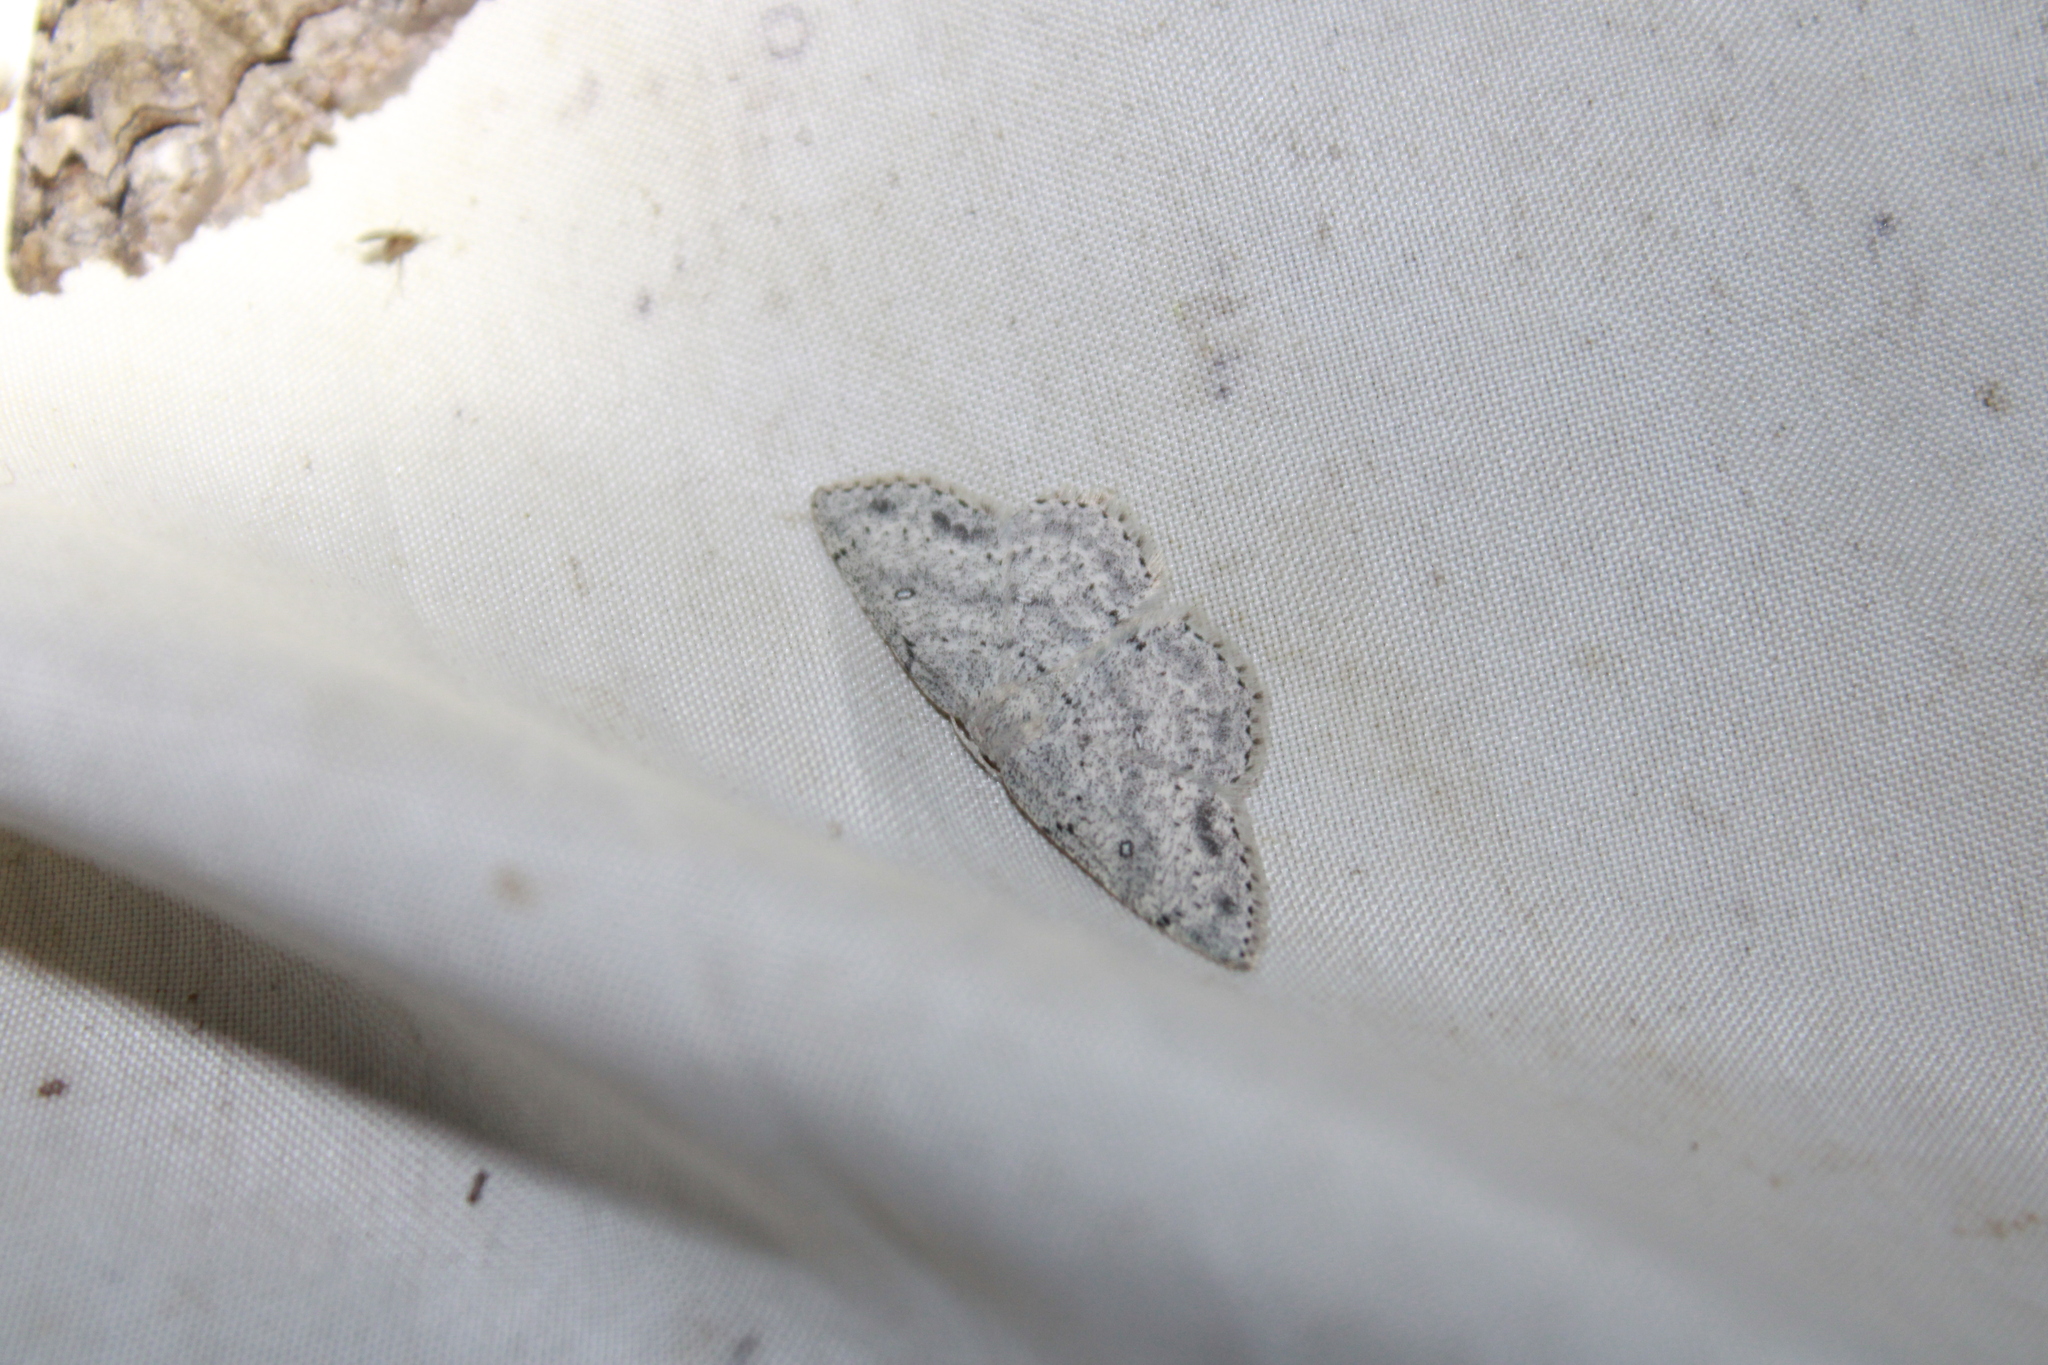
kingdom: Animalia
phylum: Arthropoda
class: Insecta
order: Lepidoptera
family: Geometridae
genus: Cyclophora
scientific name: Cyclophora pendulinaria
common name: Sweet fern geometer
